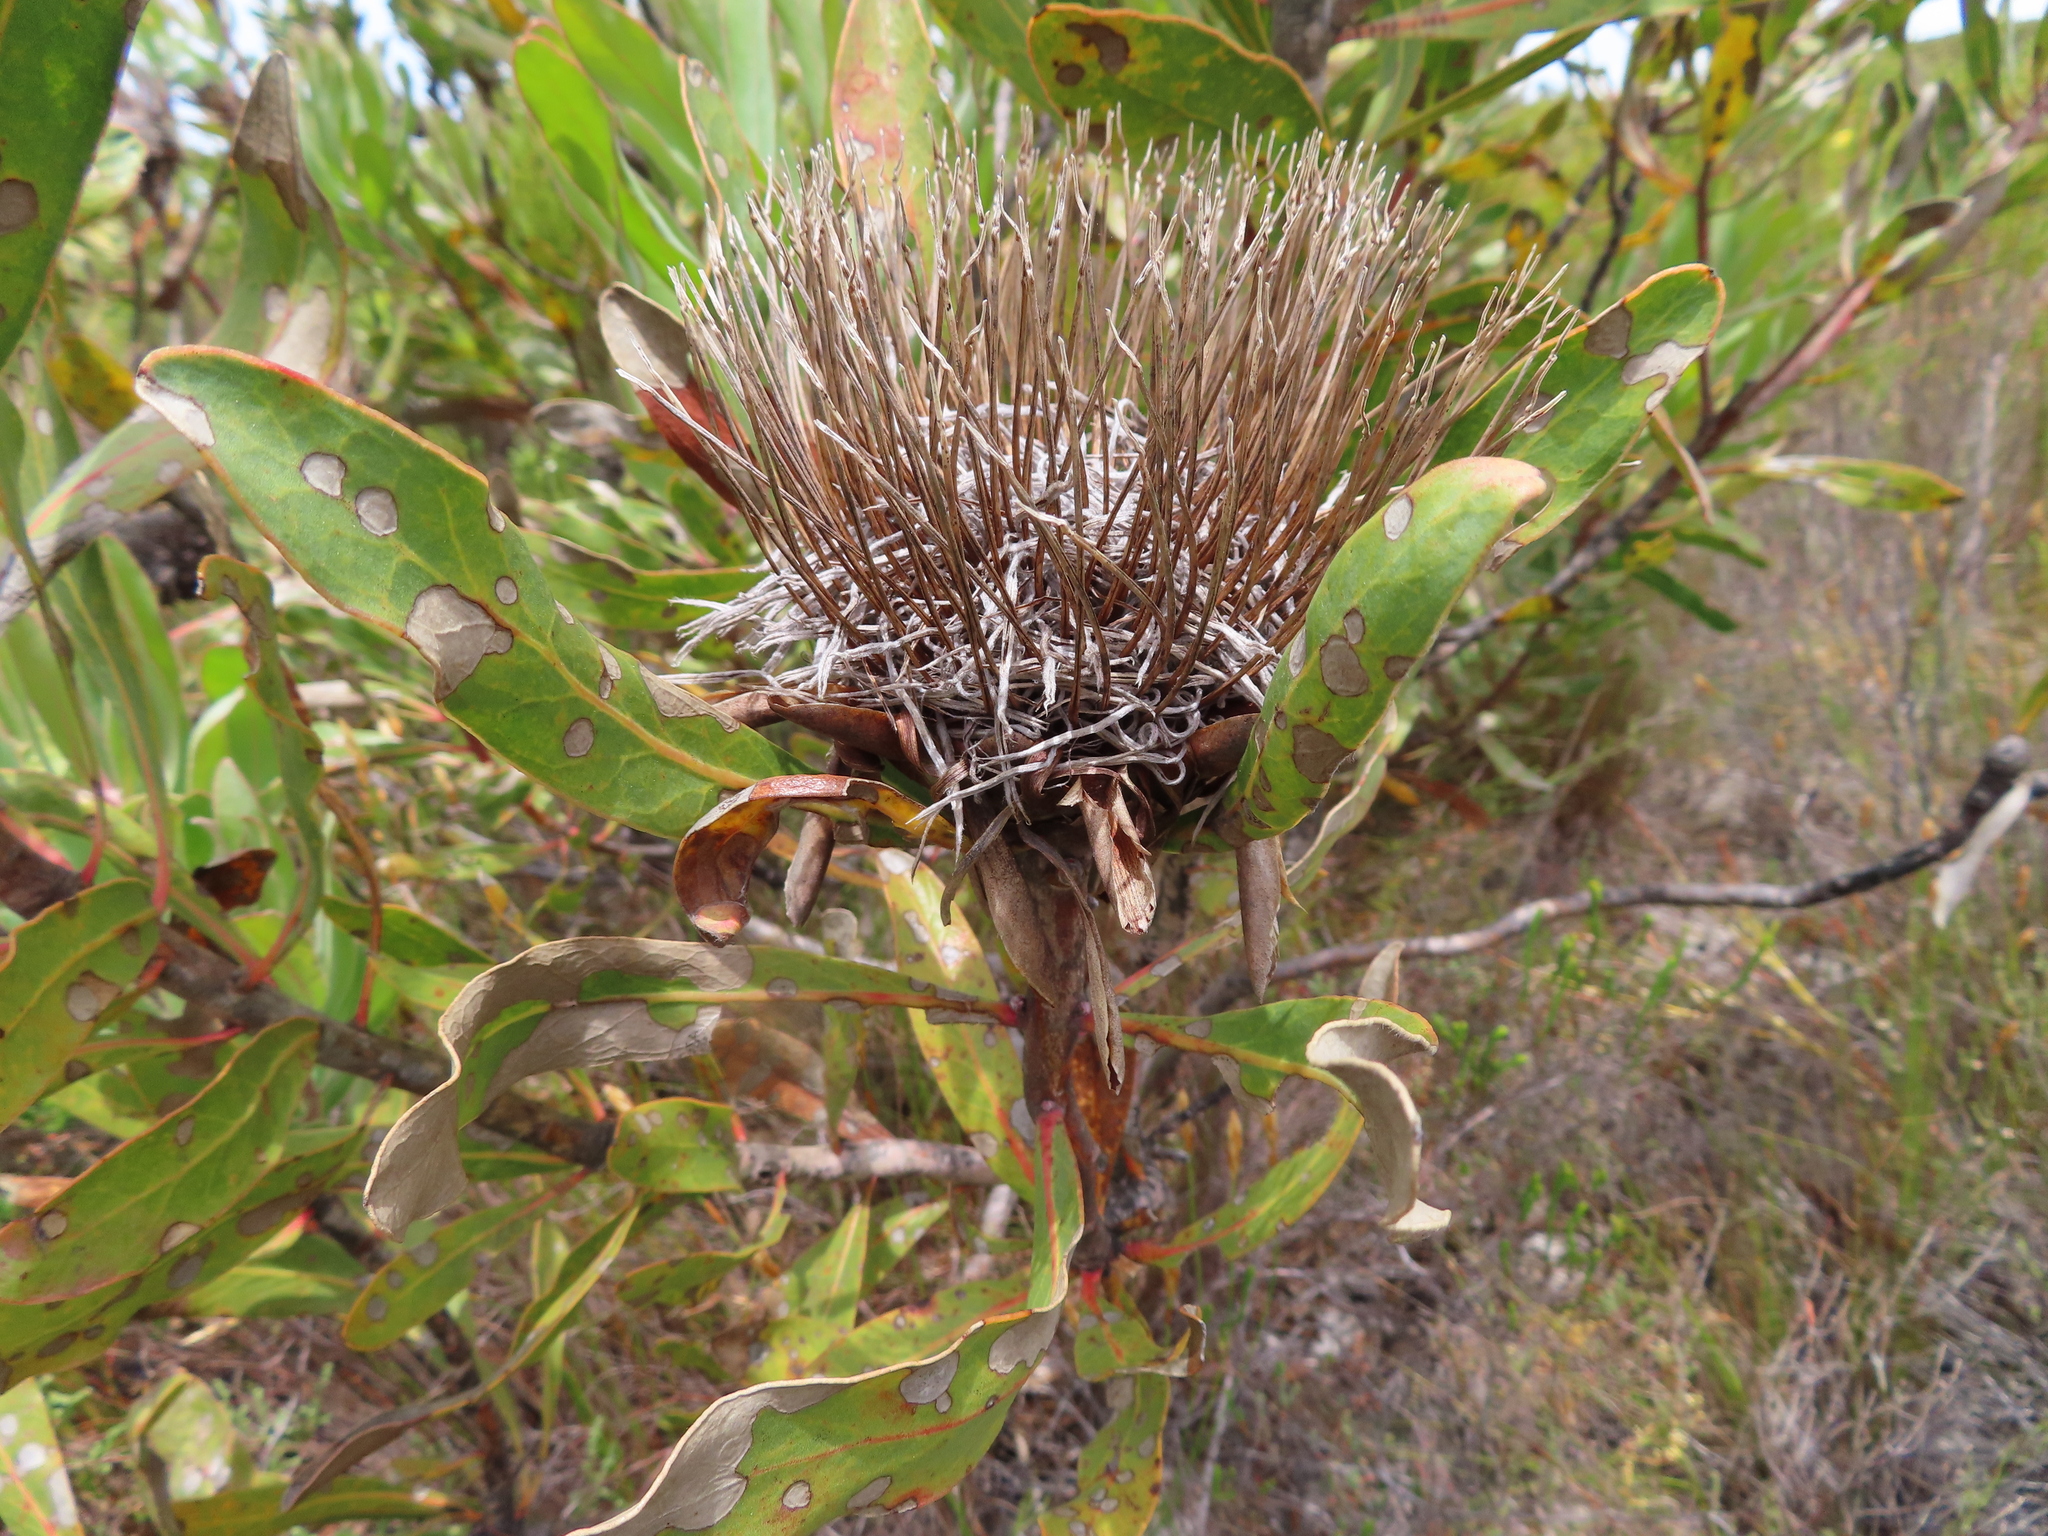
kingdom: Plantae
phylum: Tracheophyta
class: Magnoliopsida
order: Proteales
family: Proteaceae
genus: Protea
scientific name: Protea susannae
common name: Foetid-leaf sugarbush
